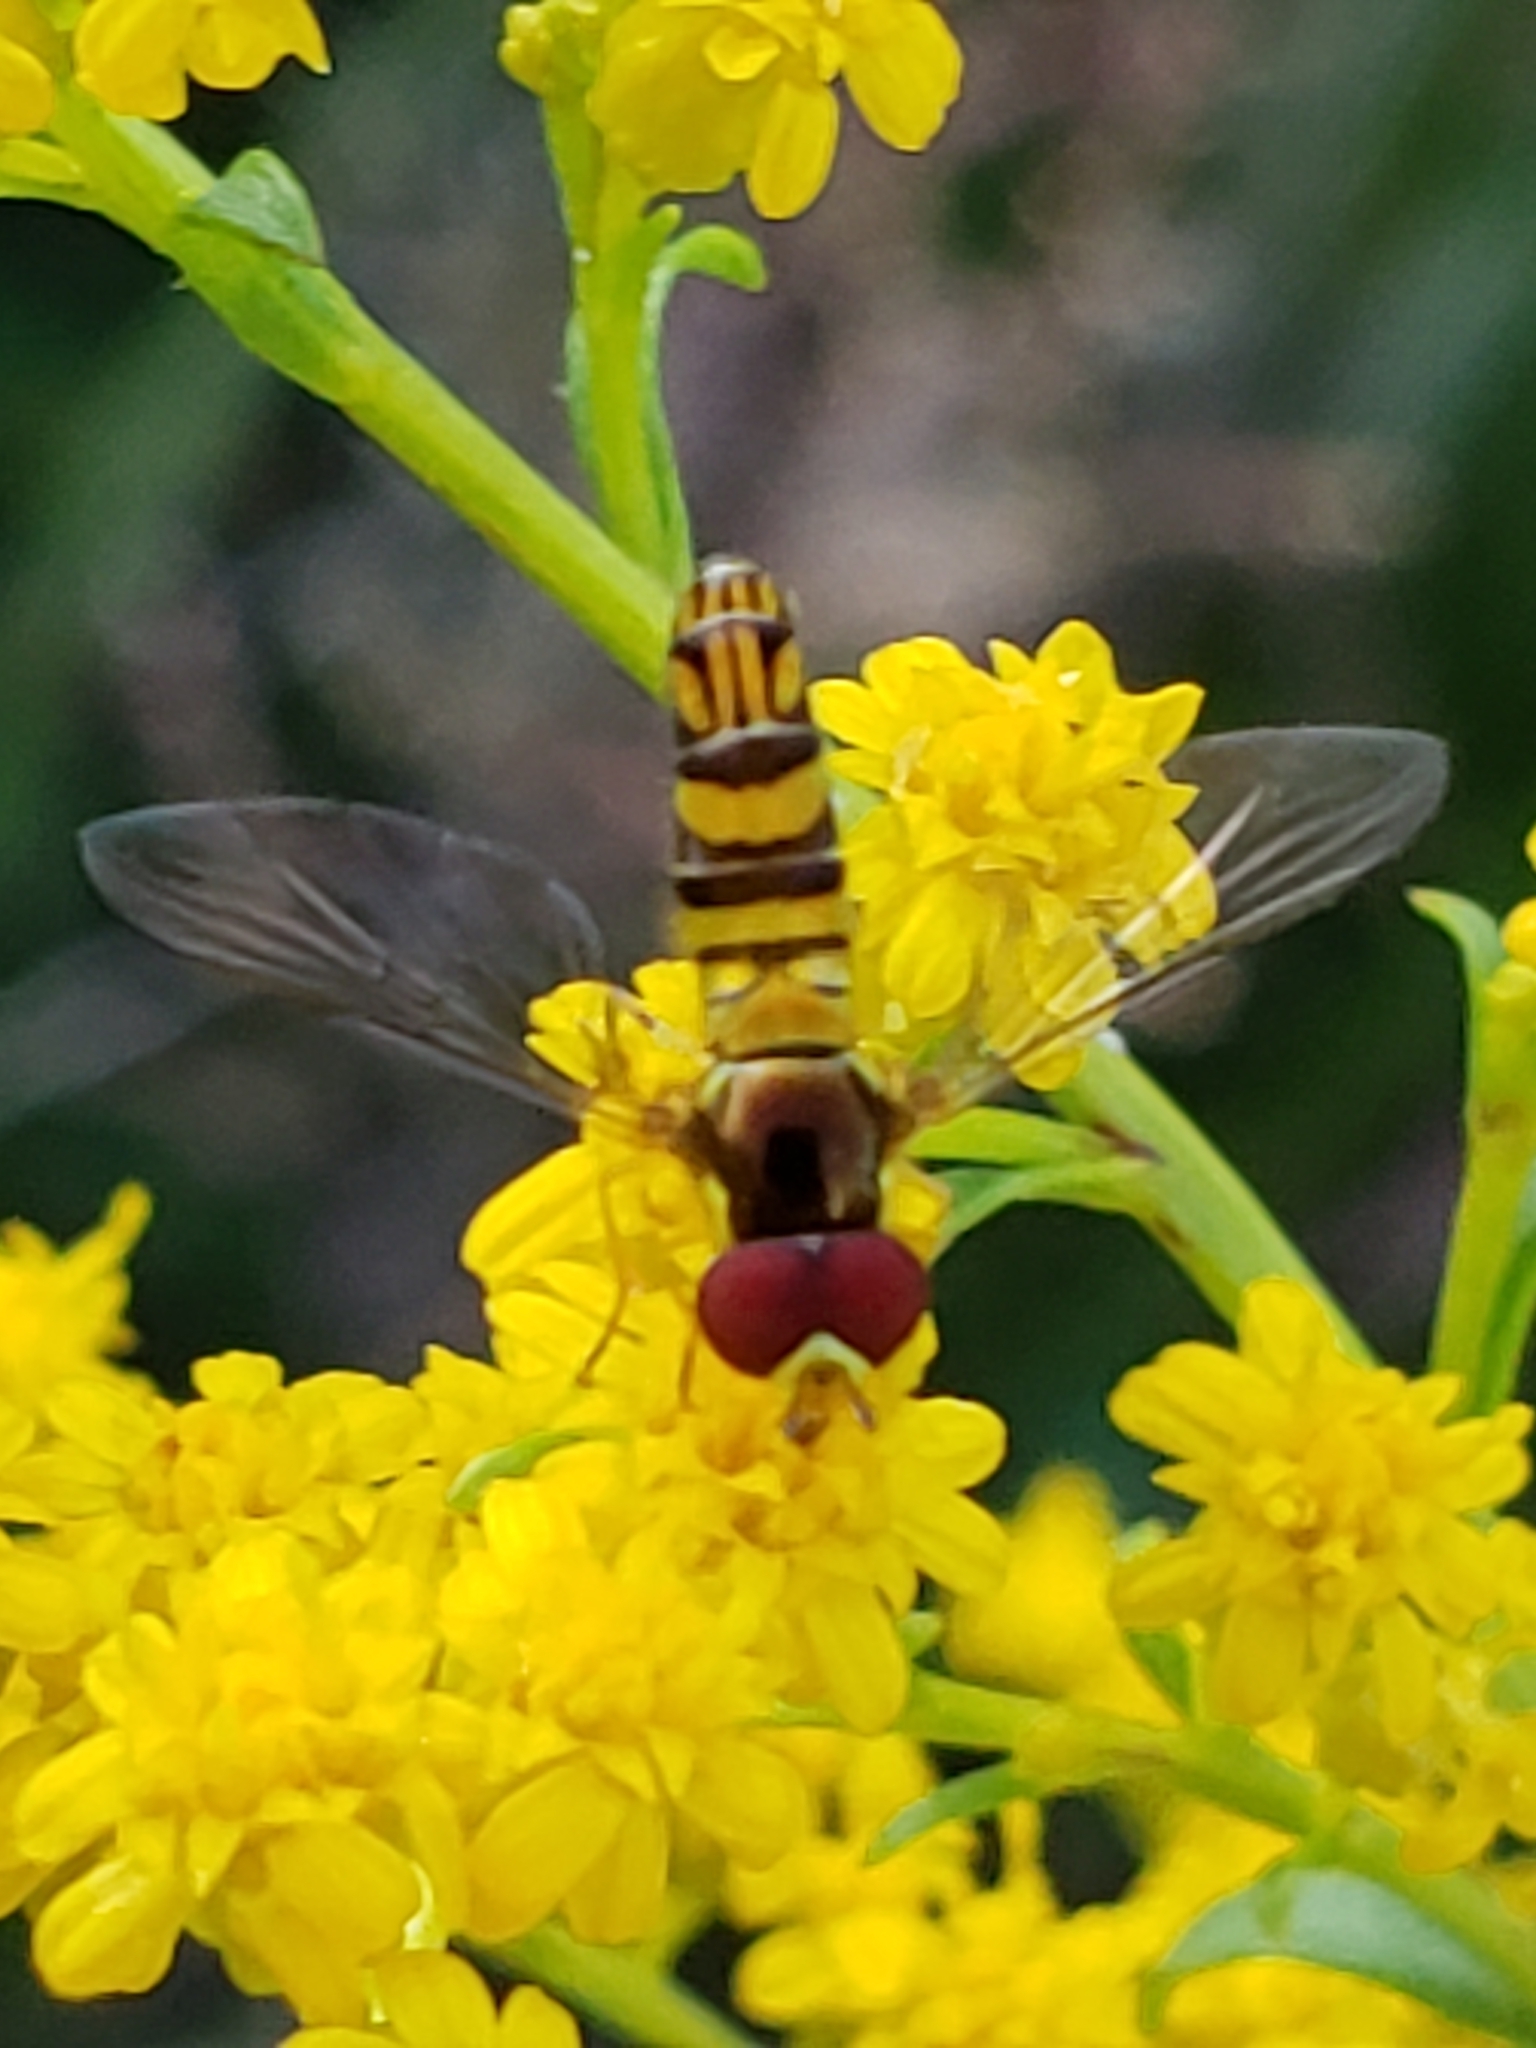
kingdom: Animalia
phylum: Arthropoda
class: Insecta
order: Diptera
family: Syrphidae
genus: Allograpta
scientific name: Allograpta obliqua
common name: Common oblique syrphid
